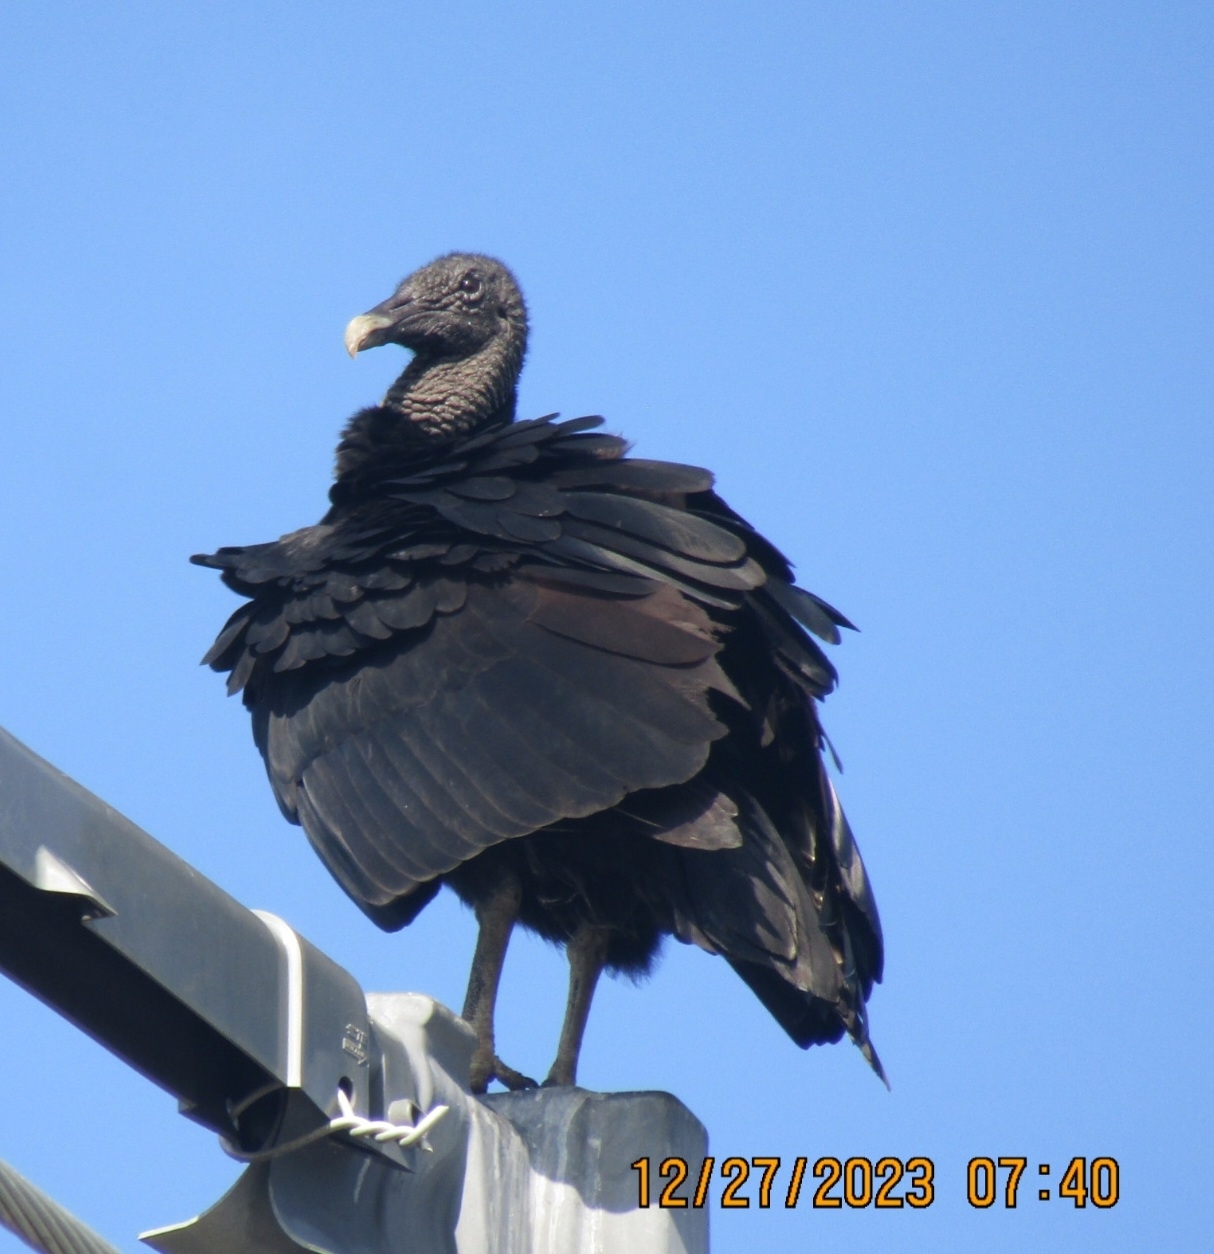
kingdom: Animalia
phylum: Chordata
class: Aves
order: Accipitriformes
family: Cathartidae
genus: Coragyps
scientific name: Coragyps atratus
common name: Black vulture
